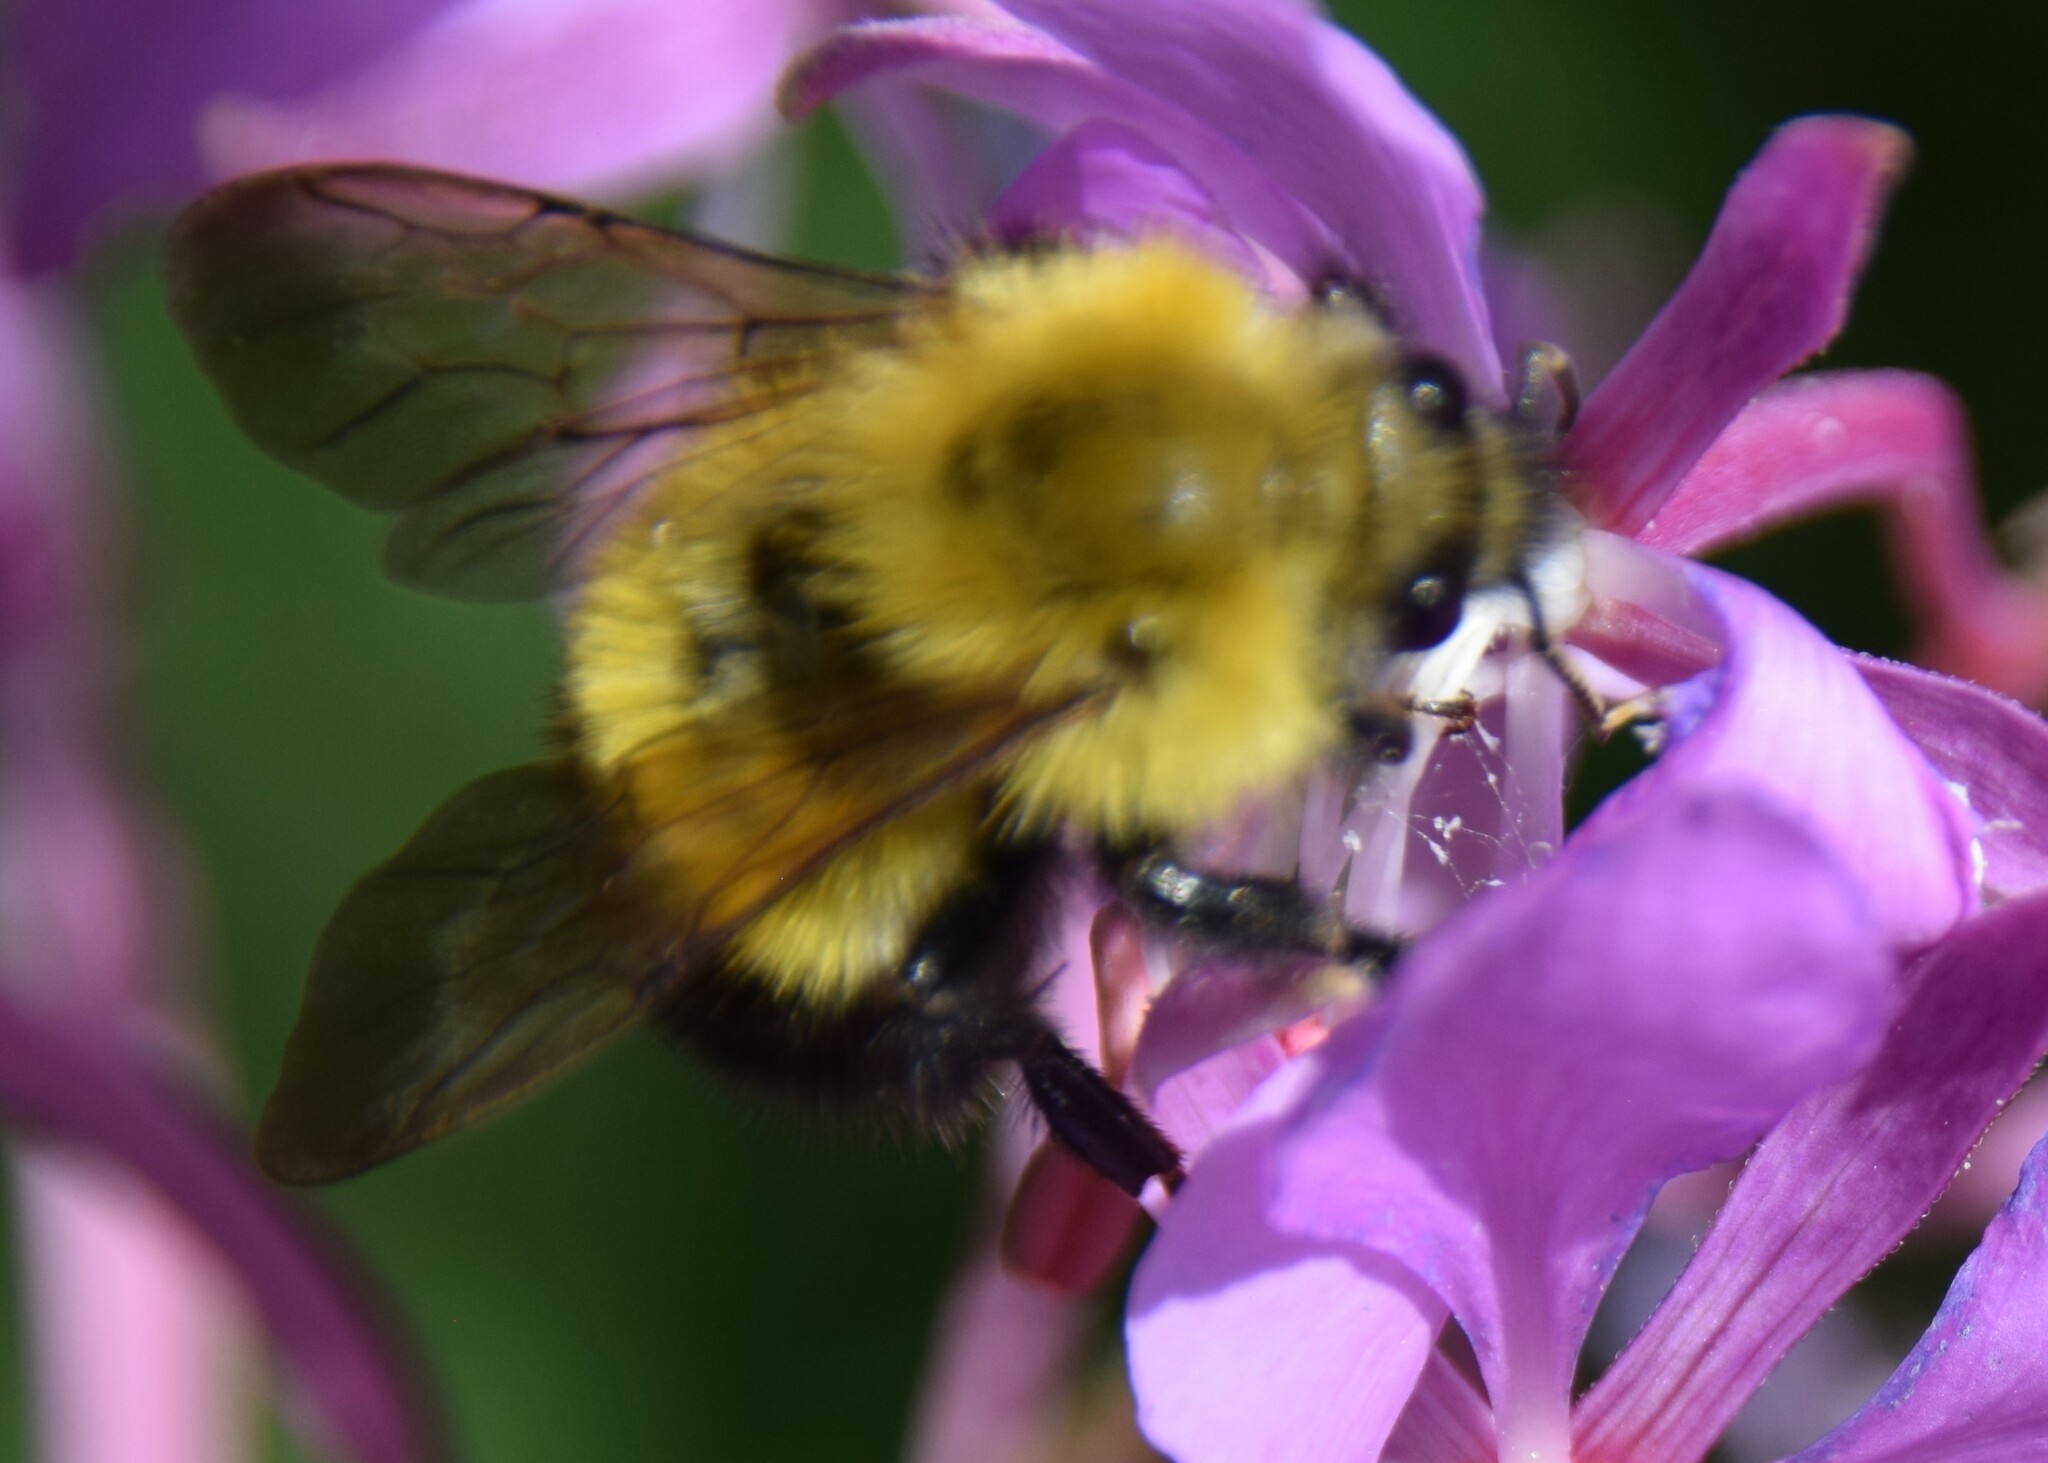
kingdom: Animalia
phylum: Arthropoda
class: Insecta
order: Hymenoptera
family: Apidae
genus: Bombus
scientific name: Bombus perplexus
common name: Confusing bumble bee
